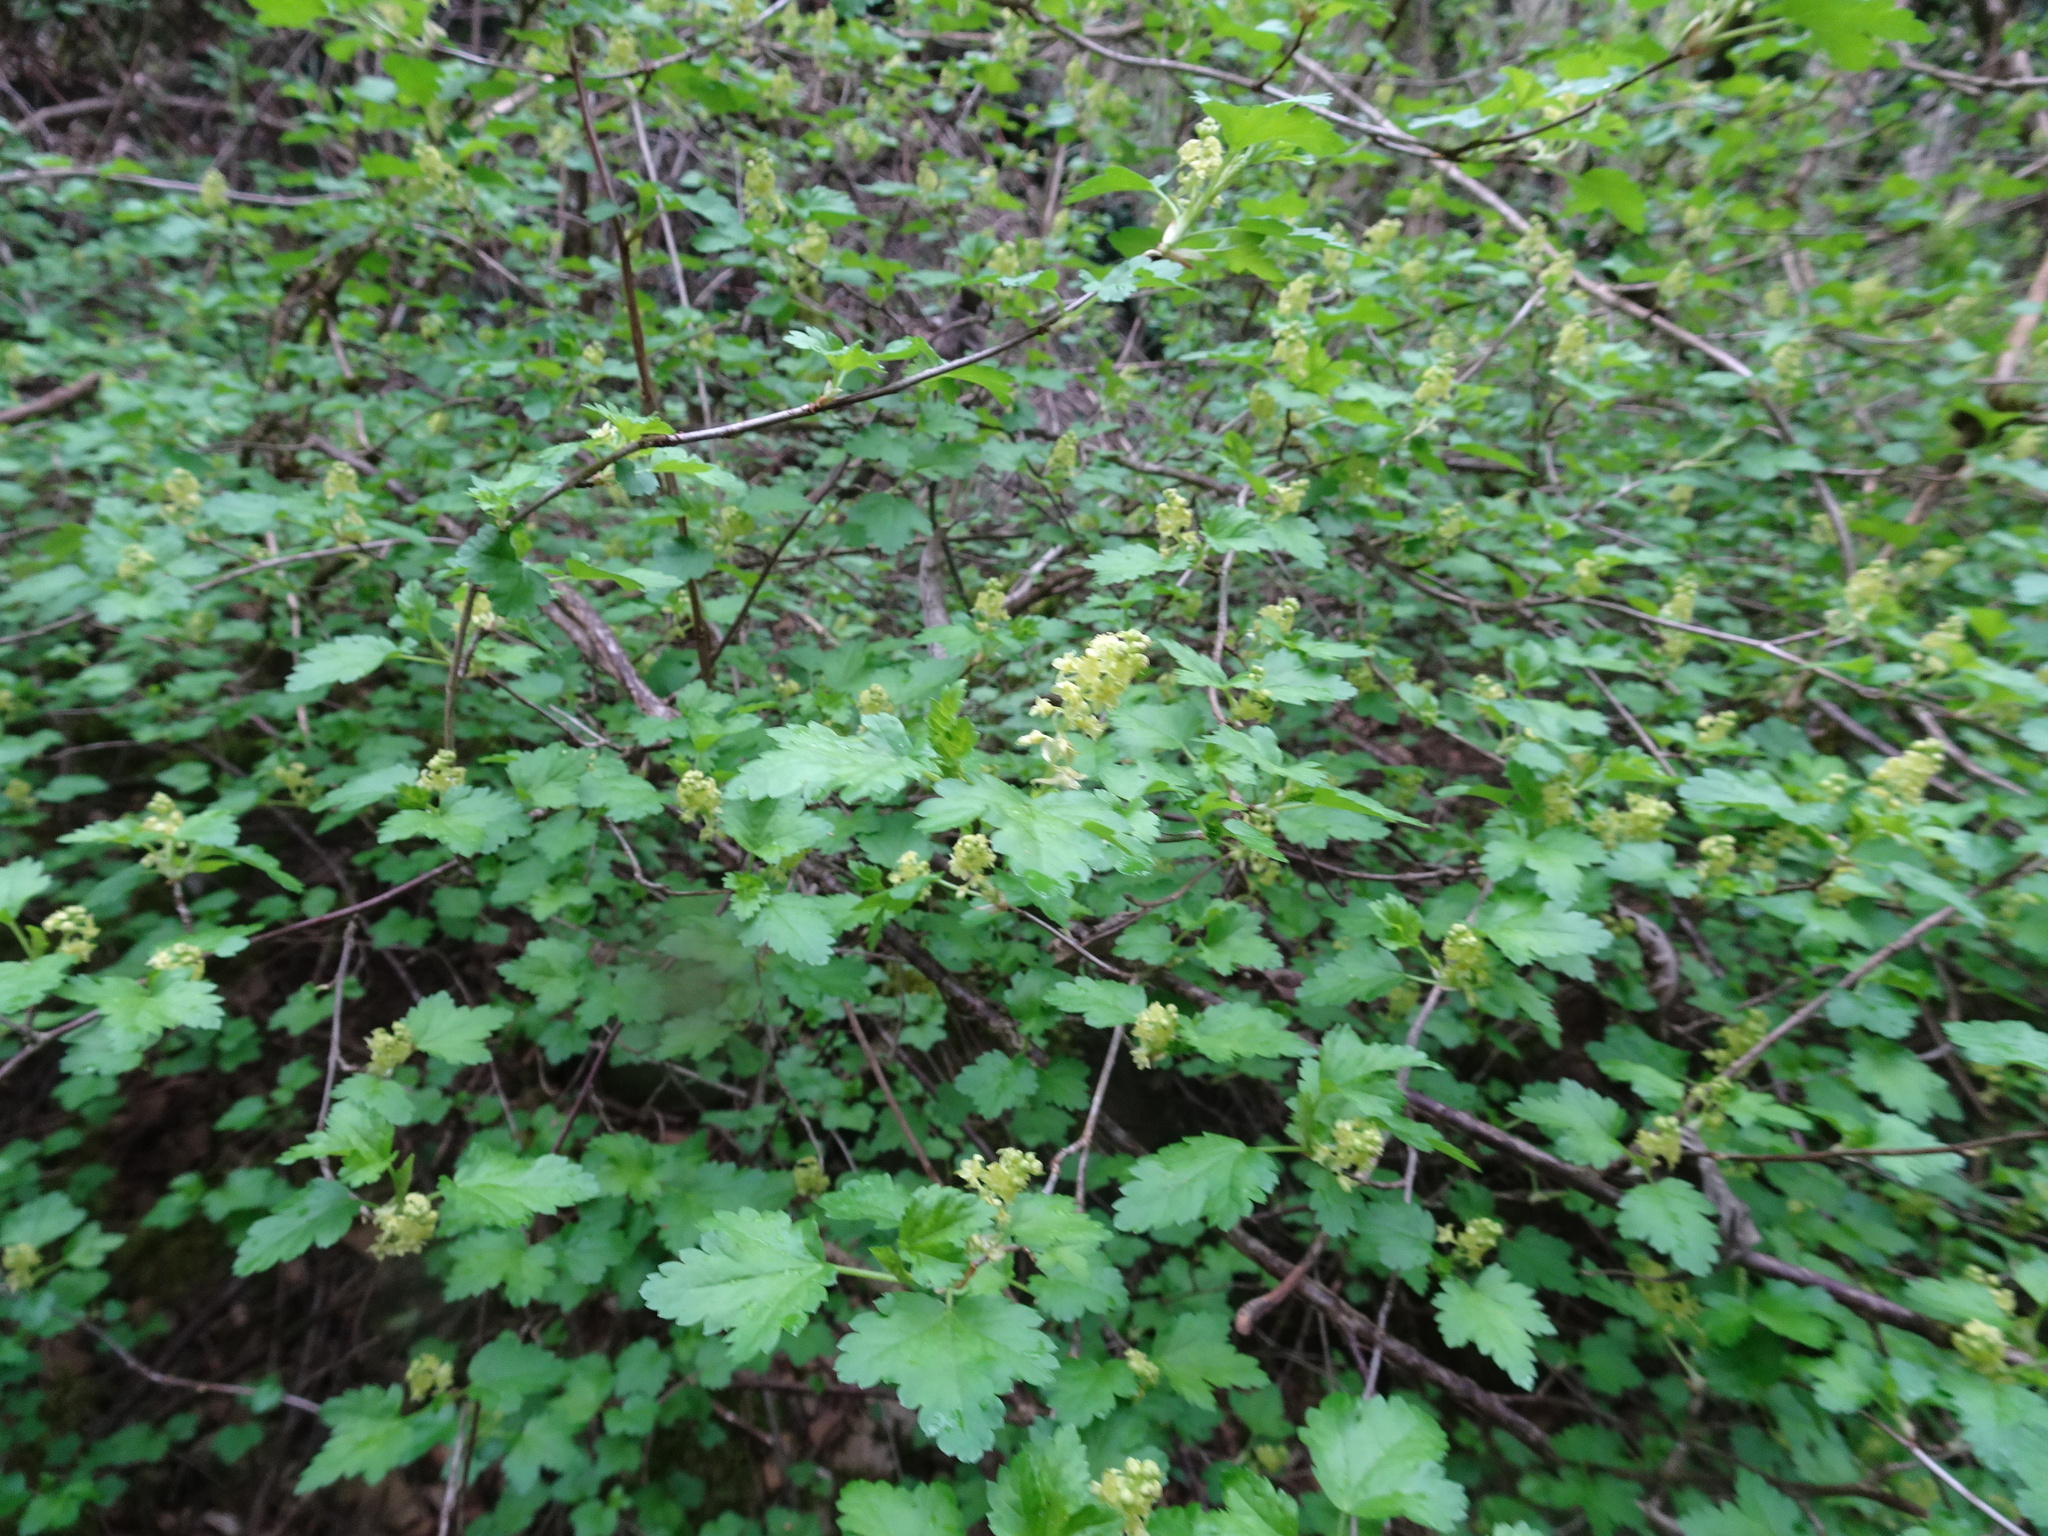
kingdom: Plantae
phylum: Tracheophyta
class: Magnoliopsida
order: Saxifragales
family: Grossulariaceae
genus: Ribes
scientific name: Ribes alpinum
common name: Alpine currant
